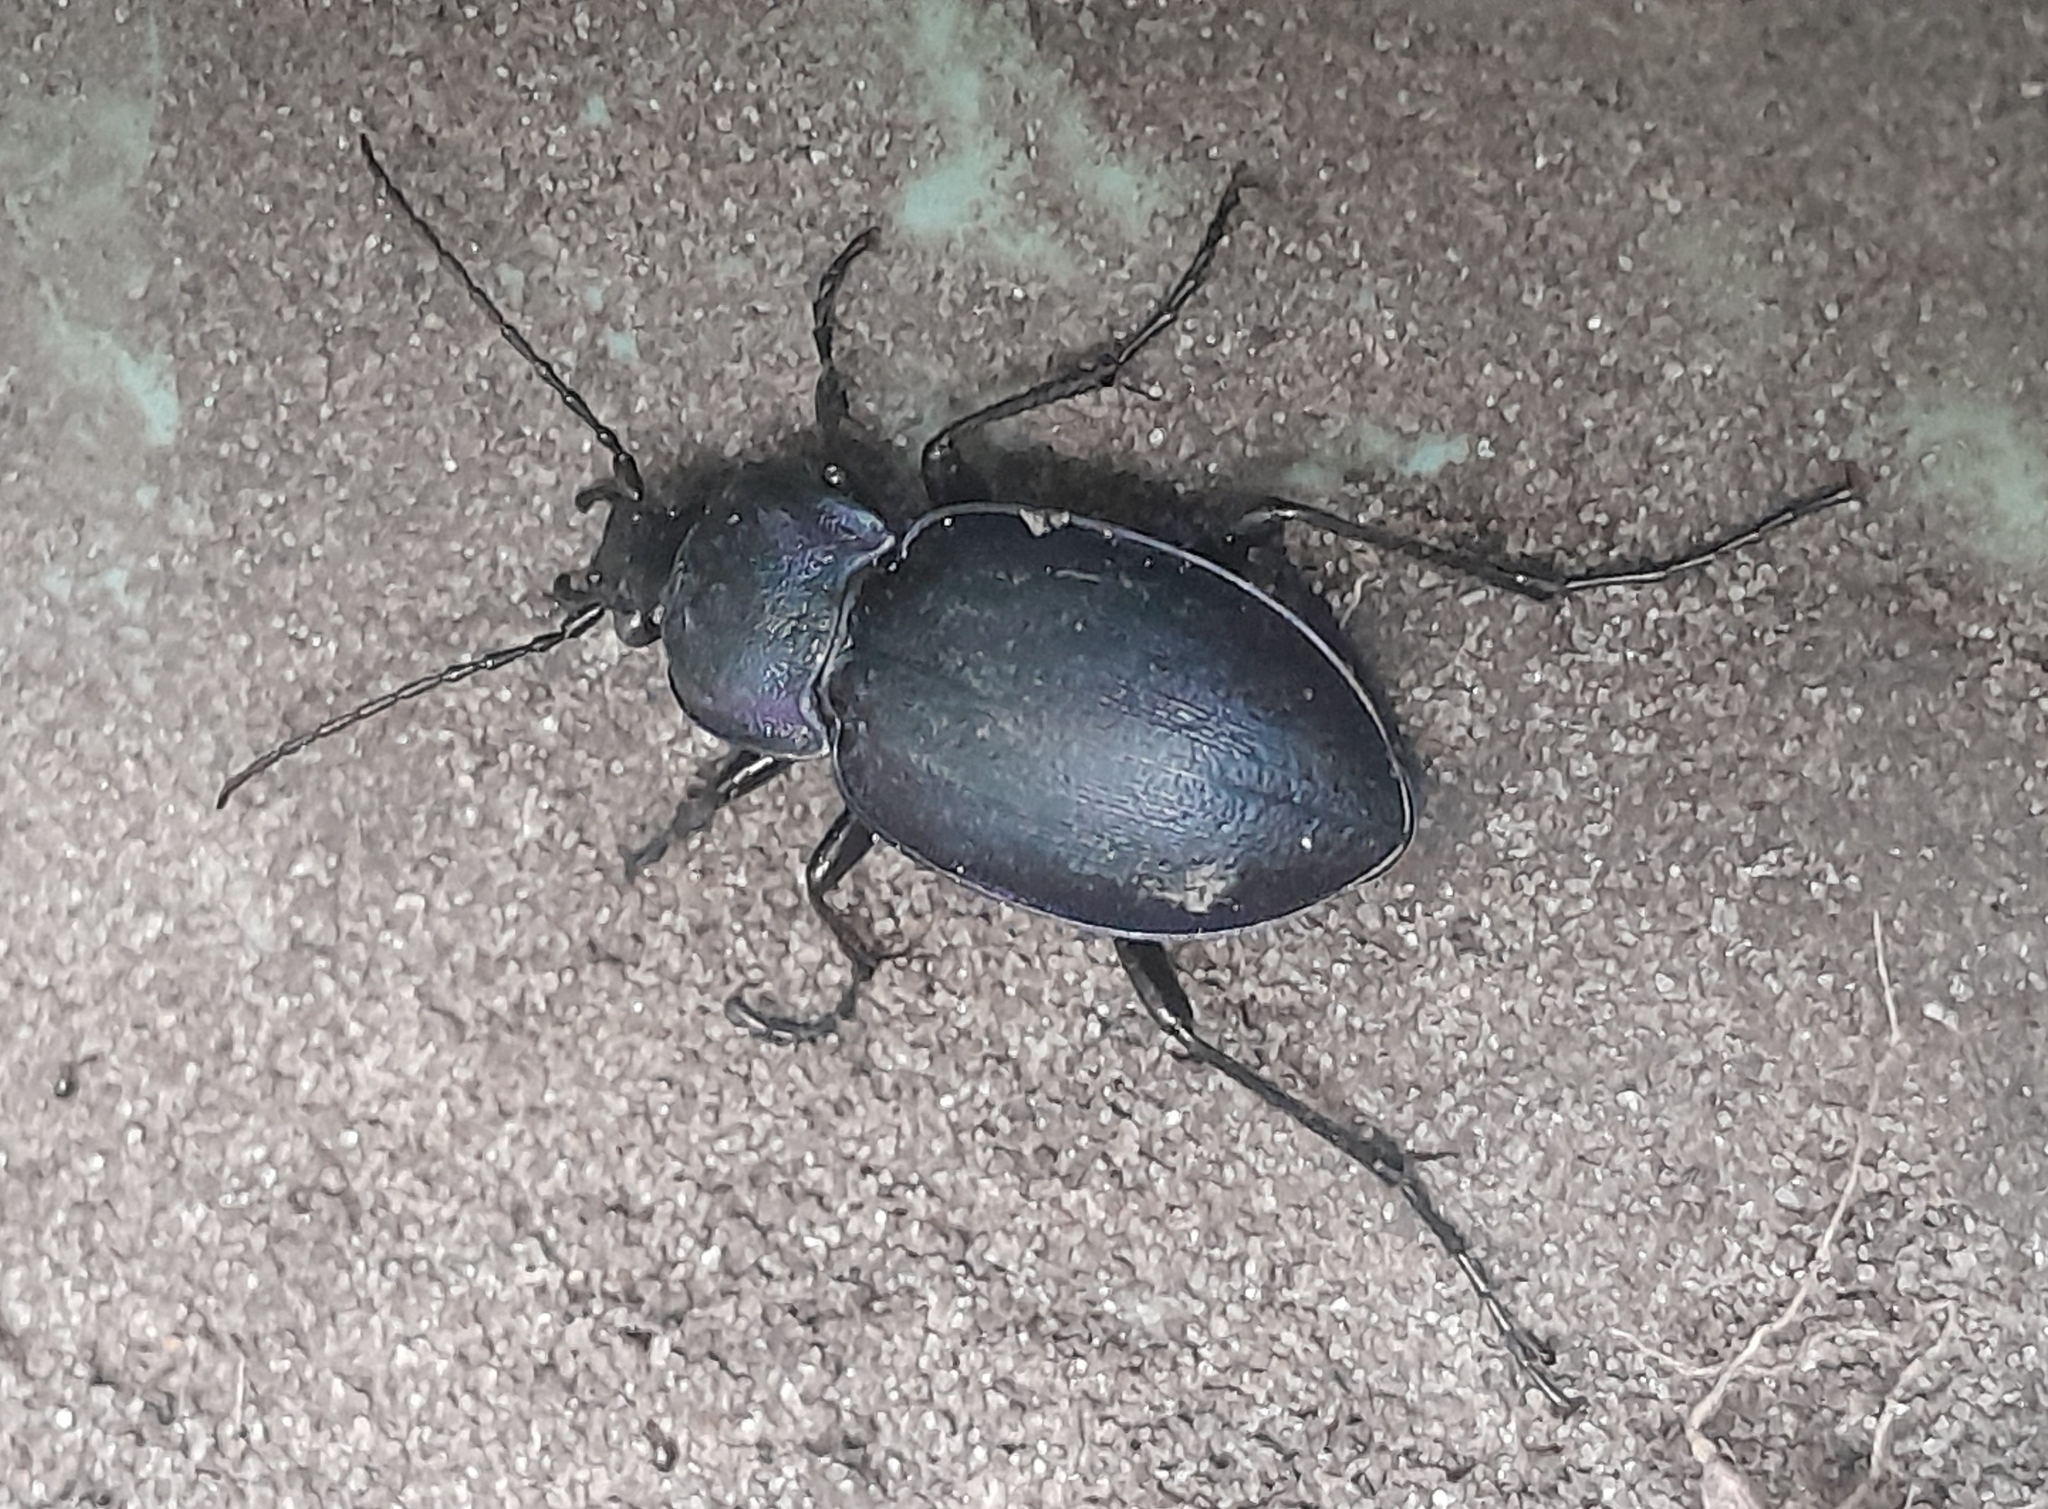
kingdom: Animalia
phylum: Arthropoda
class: Insecta
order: Coleoptera
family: Carabidae
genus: Carabus
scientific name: Carabus convexus
